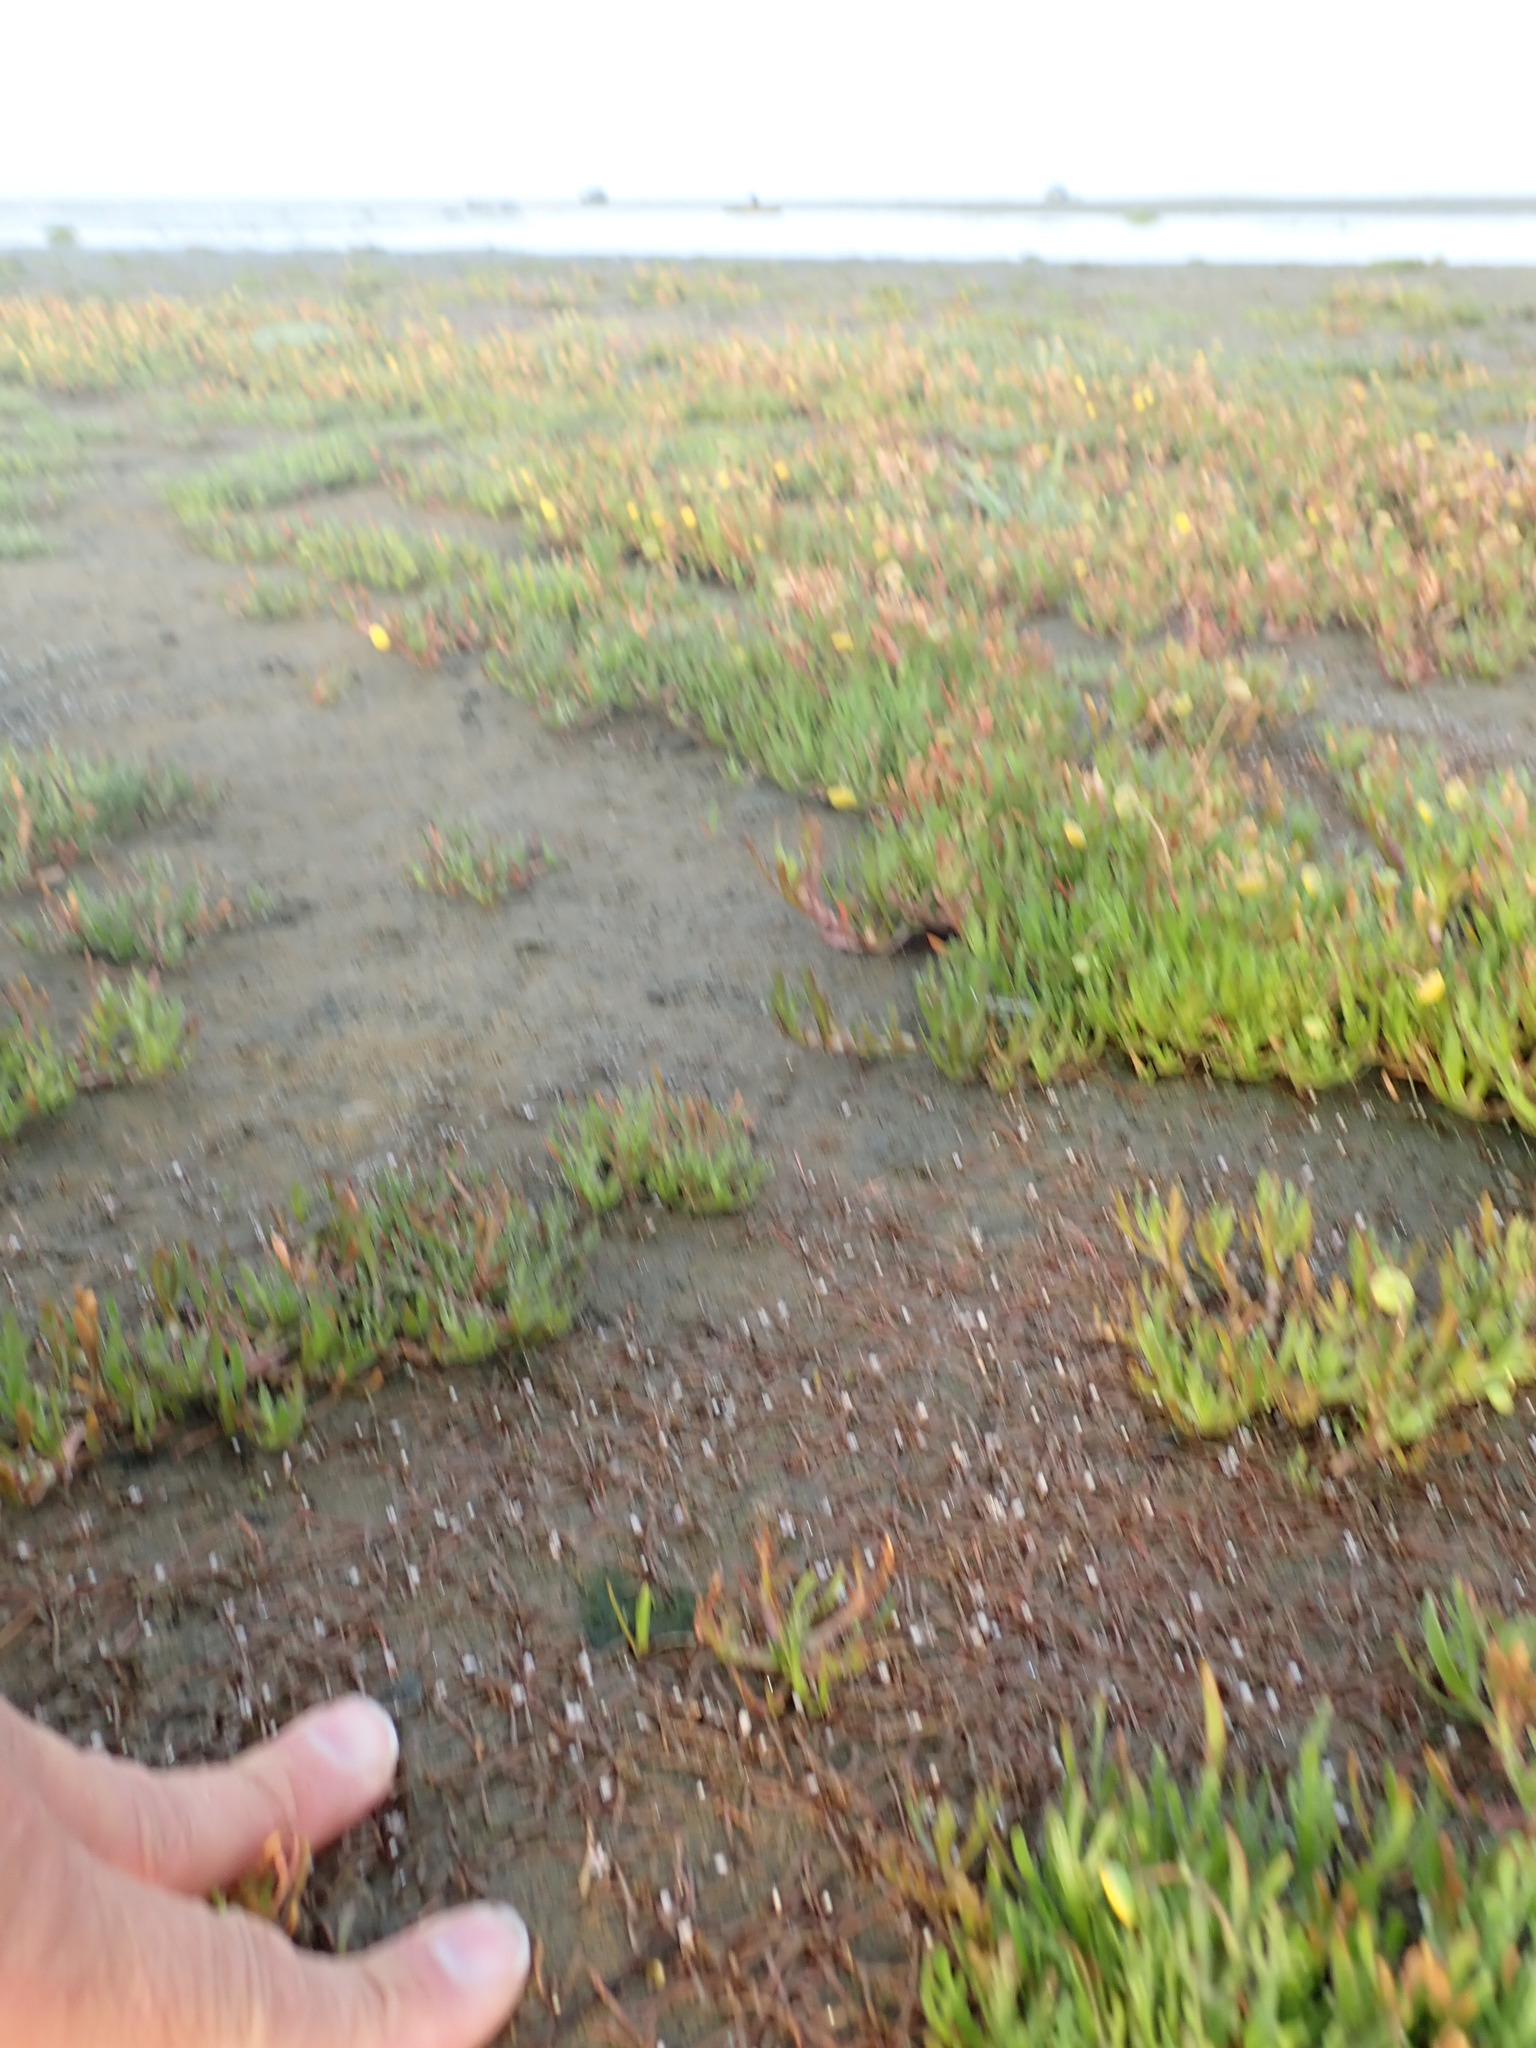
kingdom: Plantae
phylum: Tracheophyta
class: Magnoliopsida
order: Lamiales
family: Scrophulariaceae
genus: Limosella
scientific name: Limosella australis
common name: Welsh mudwort
